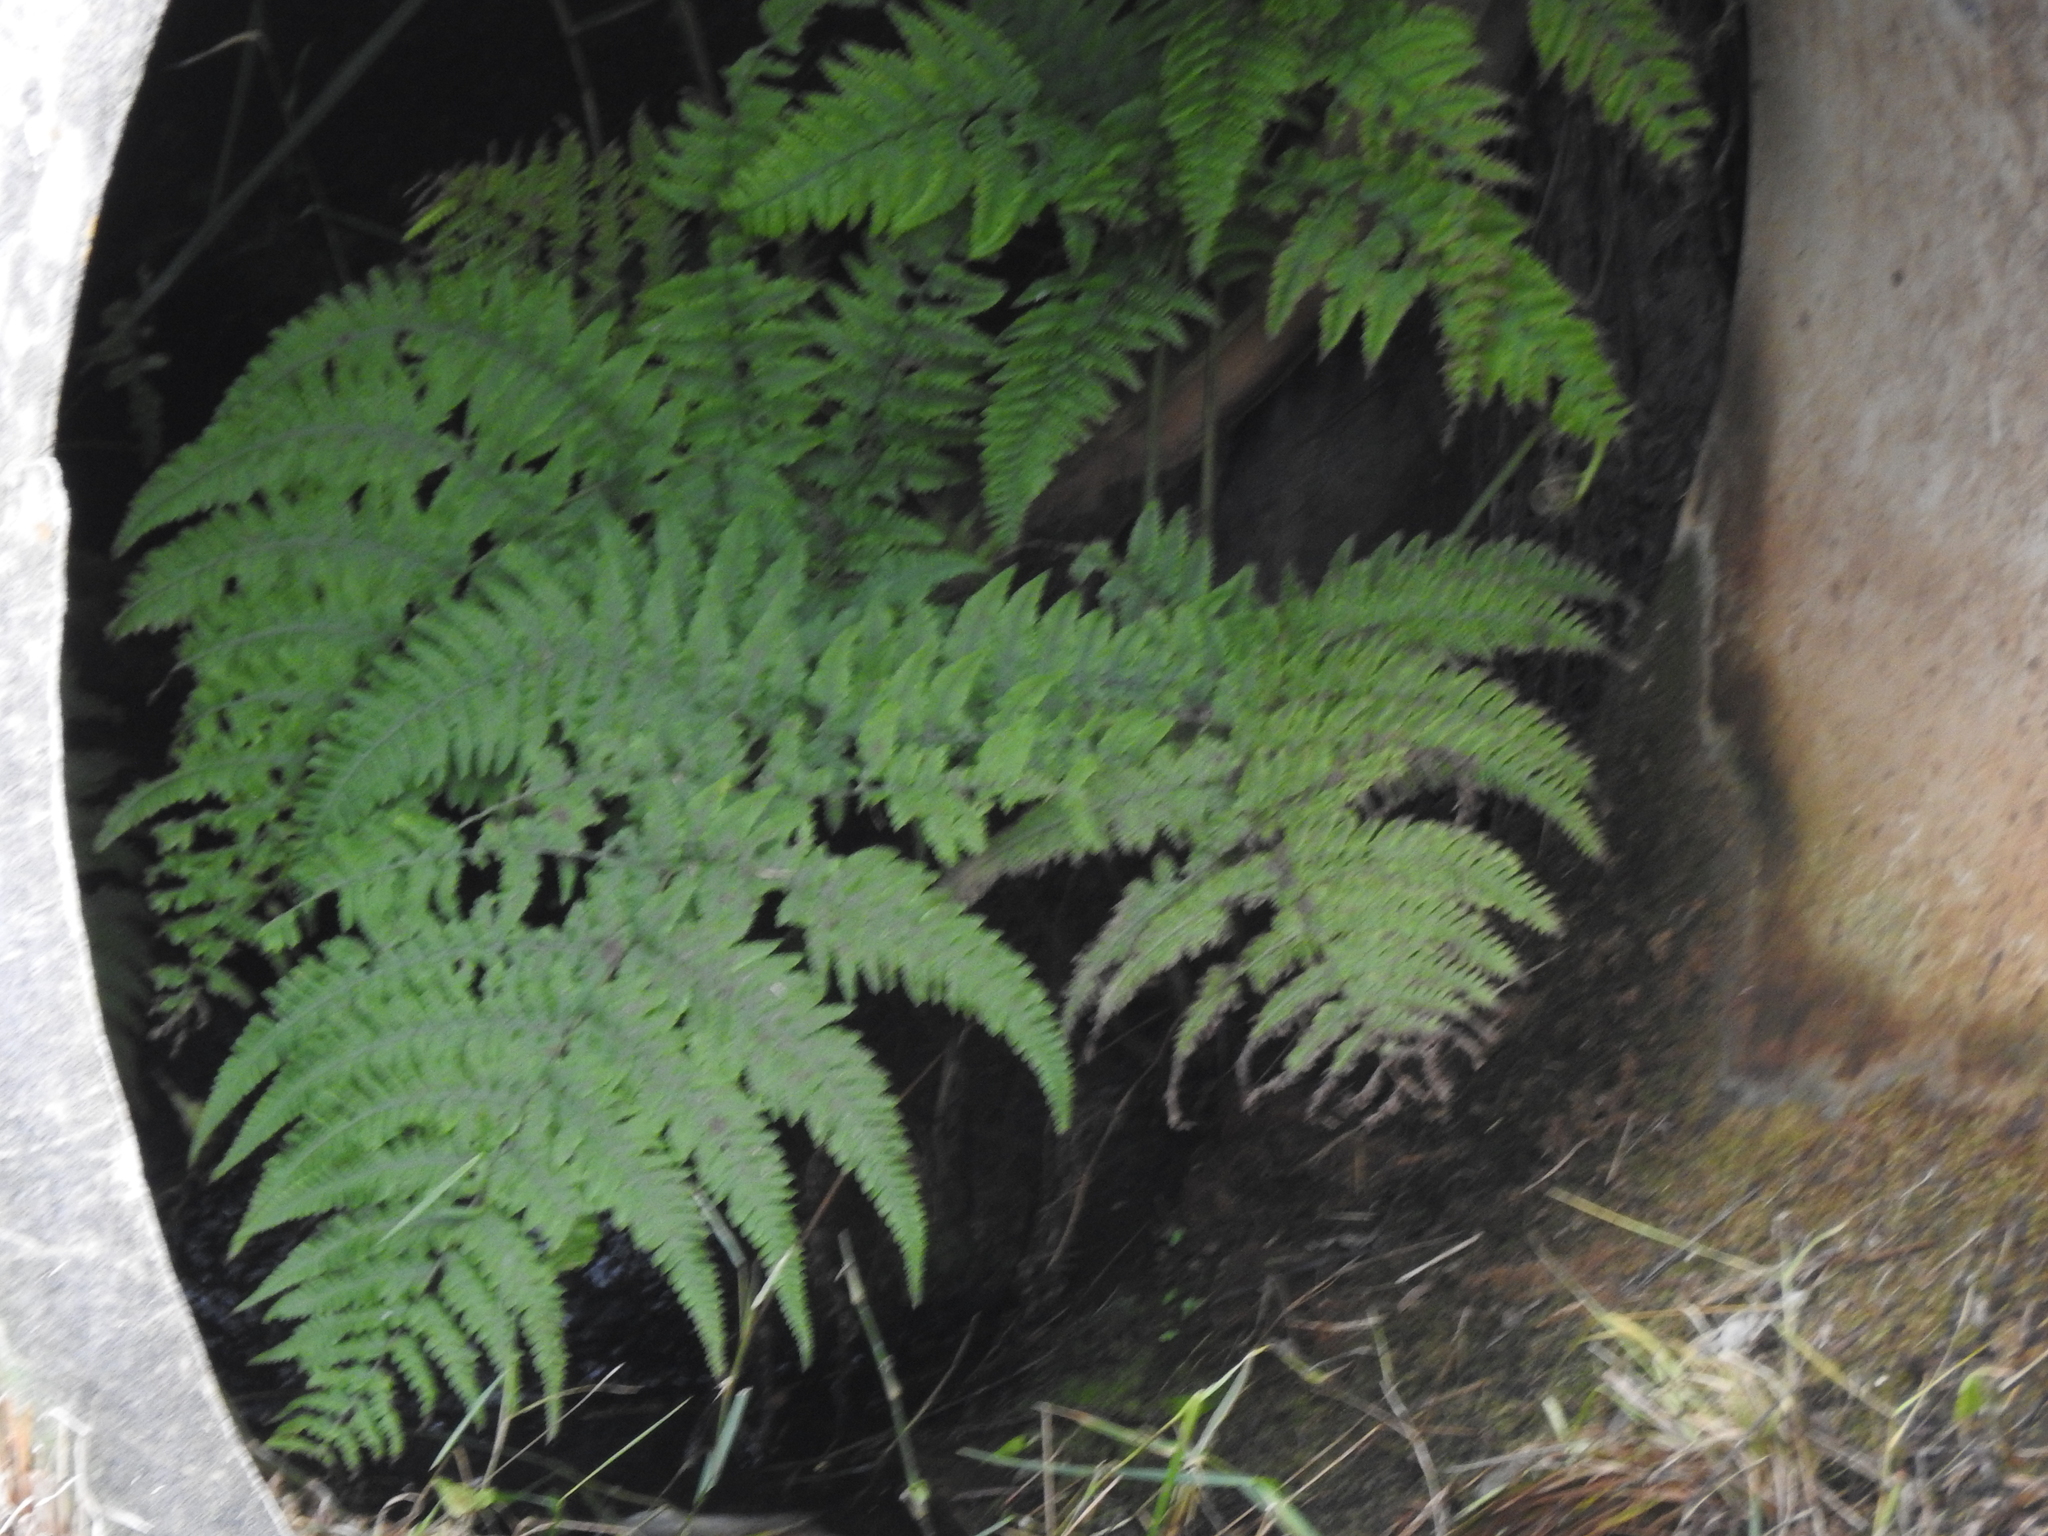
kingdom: Plantae
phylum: Tracheophyta
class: Polypodiopsida
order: Polypodiales
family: Thelypteridaceae
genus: Macrothelypteris
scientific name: Macrothelypteris torresiana
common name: Swordfern
